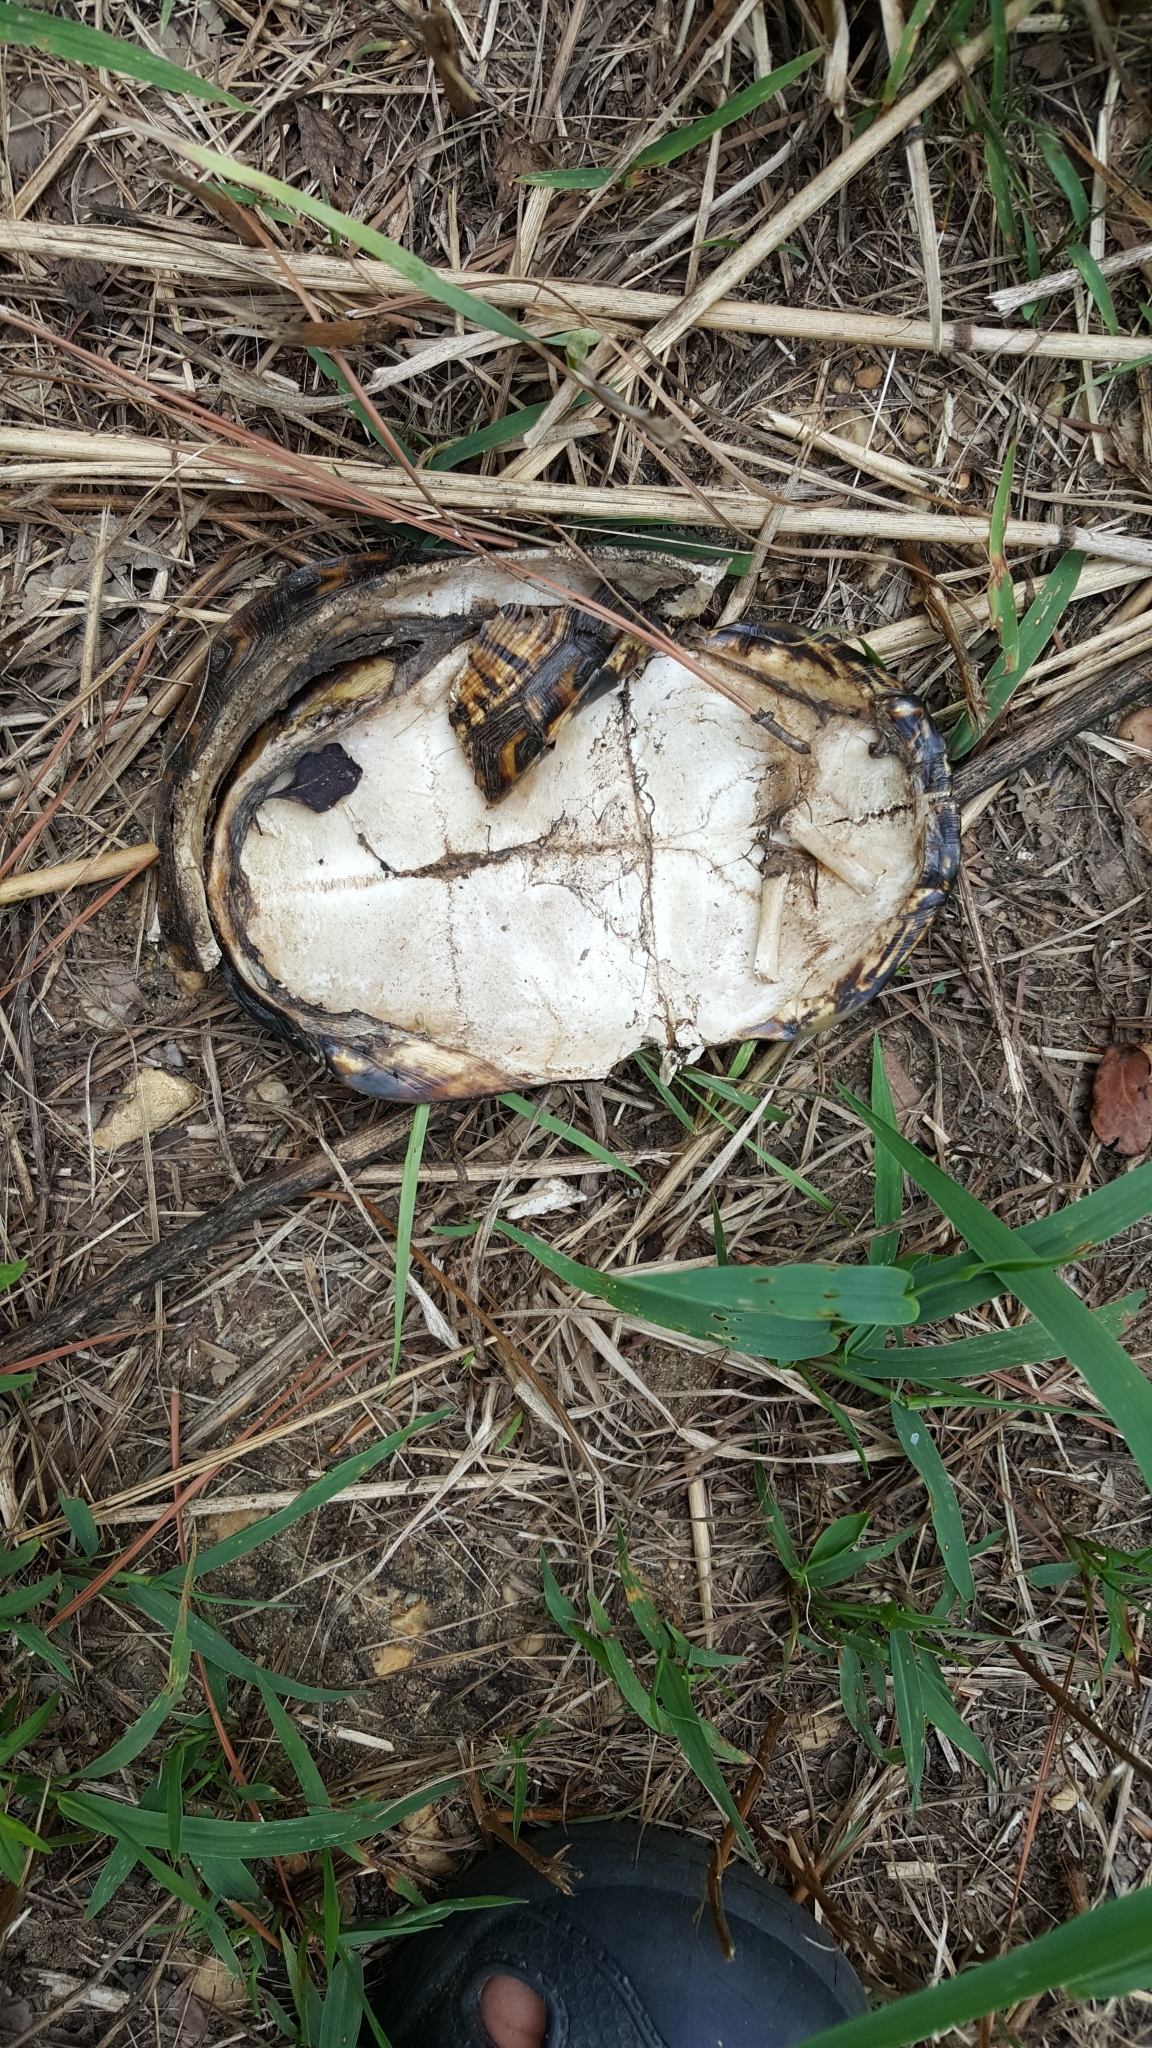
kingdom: Animalia
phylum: Chordata
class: Testudines
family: Emydidae
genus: Terrapene
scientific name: Terrapene carolina
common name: Common box turtle
